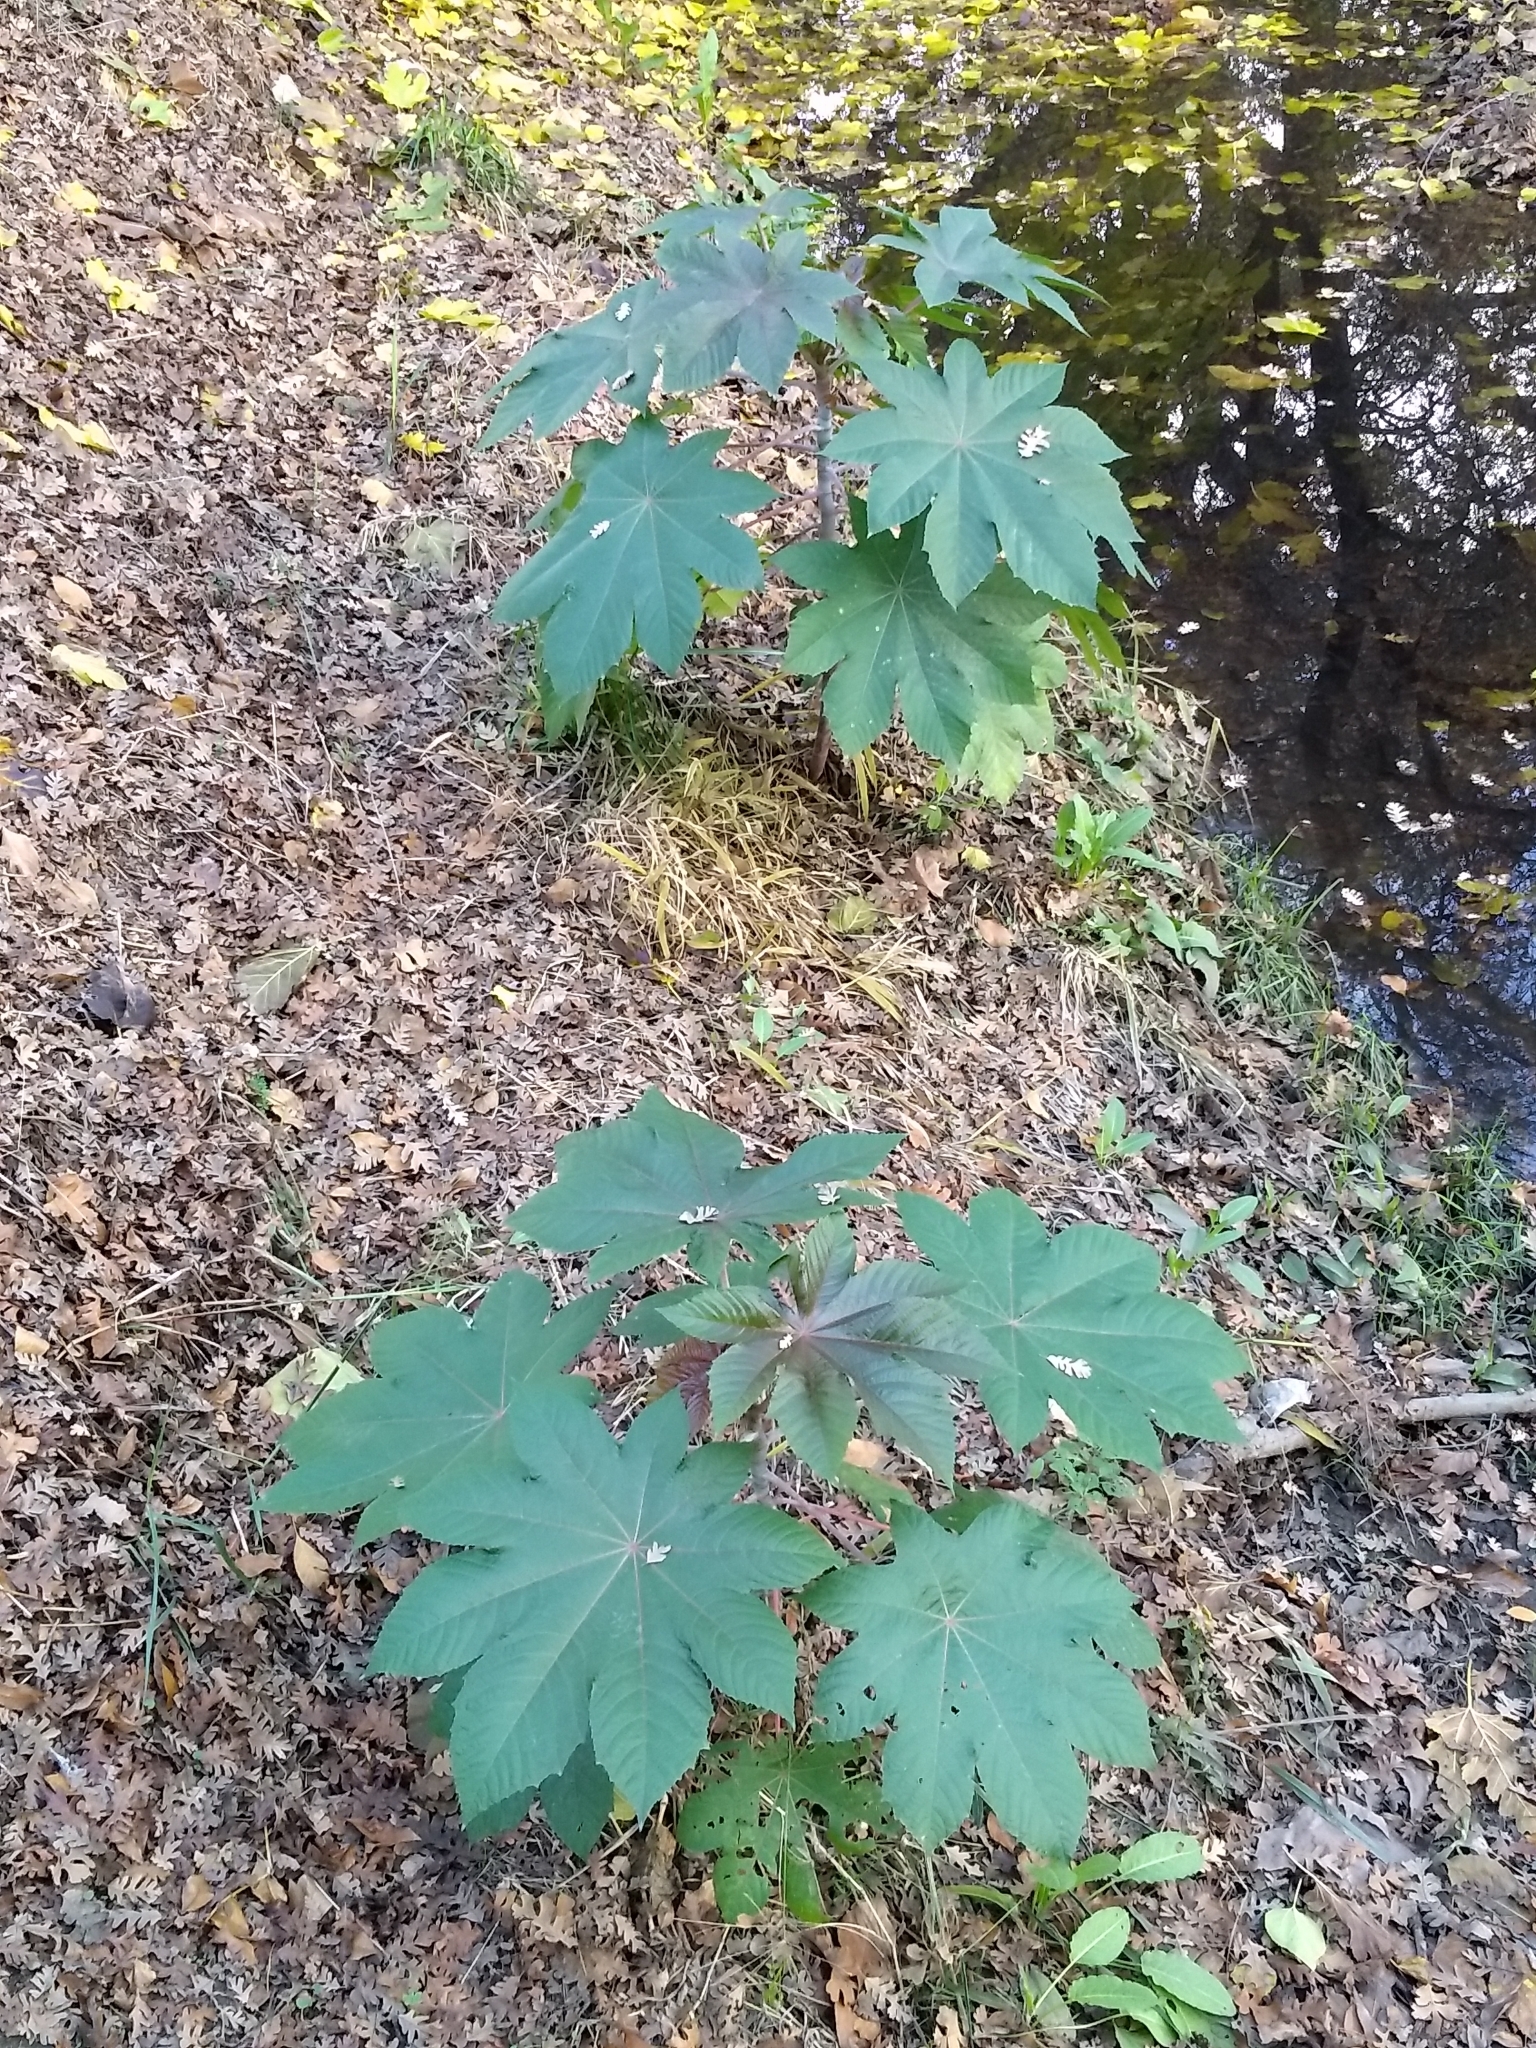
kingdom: Plantae
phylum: Tracheophyta
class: Magnoliopsida
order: Malpighiales
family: Euphorbiaceae
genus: Ricinus
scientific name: Ricinus communis
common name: Castor-oil-plant
